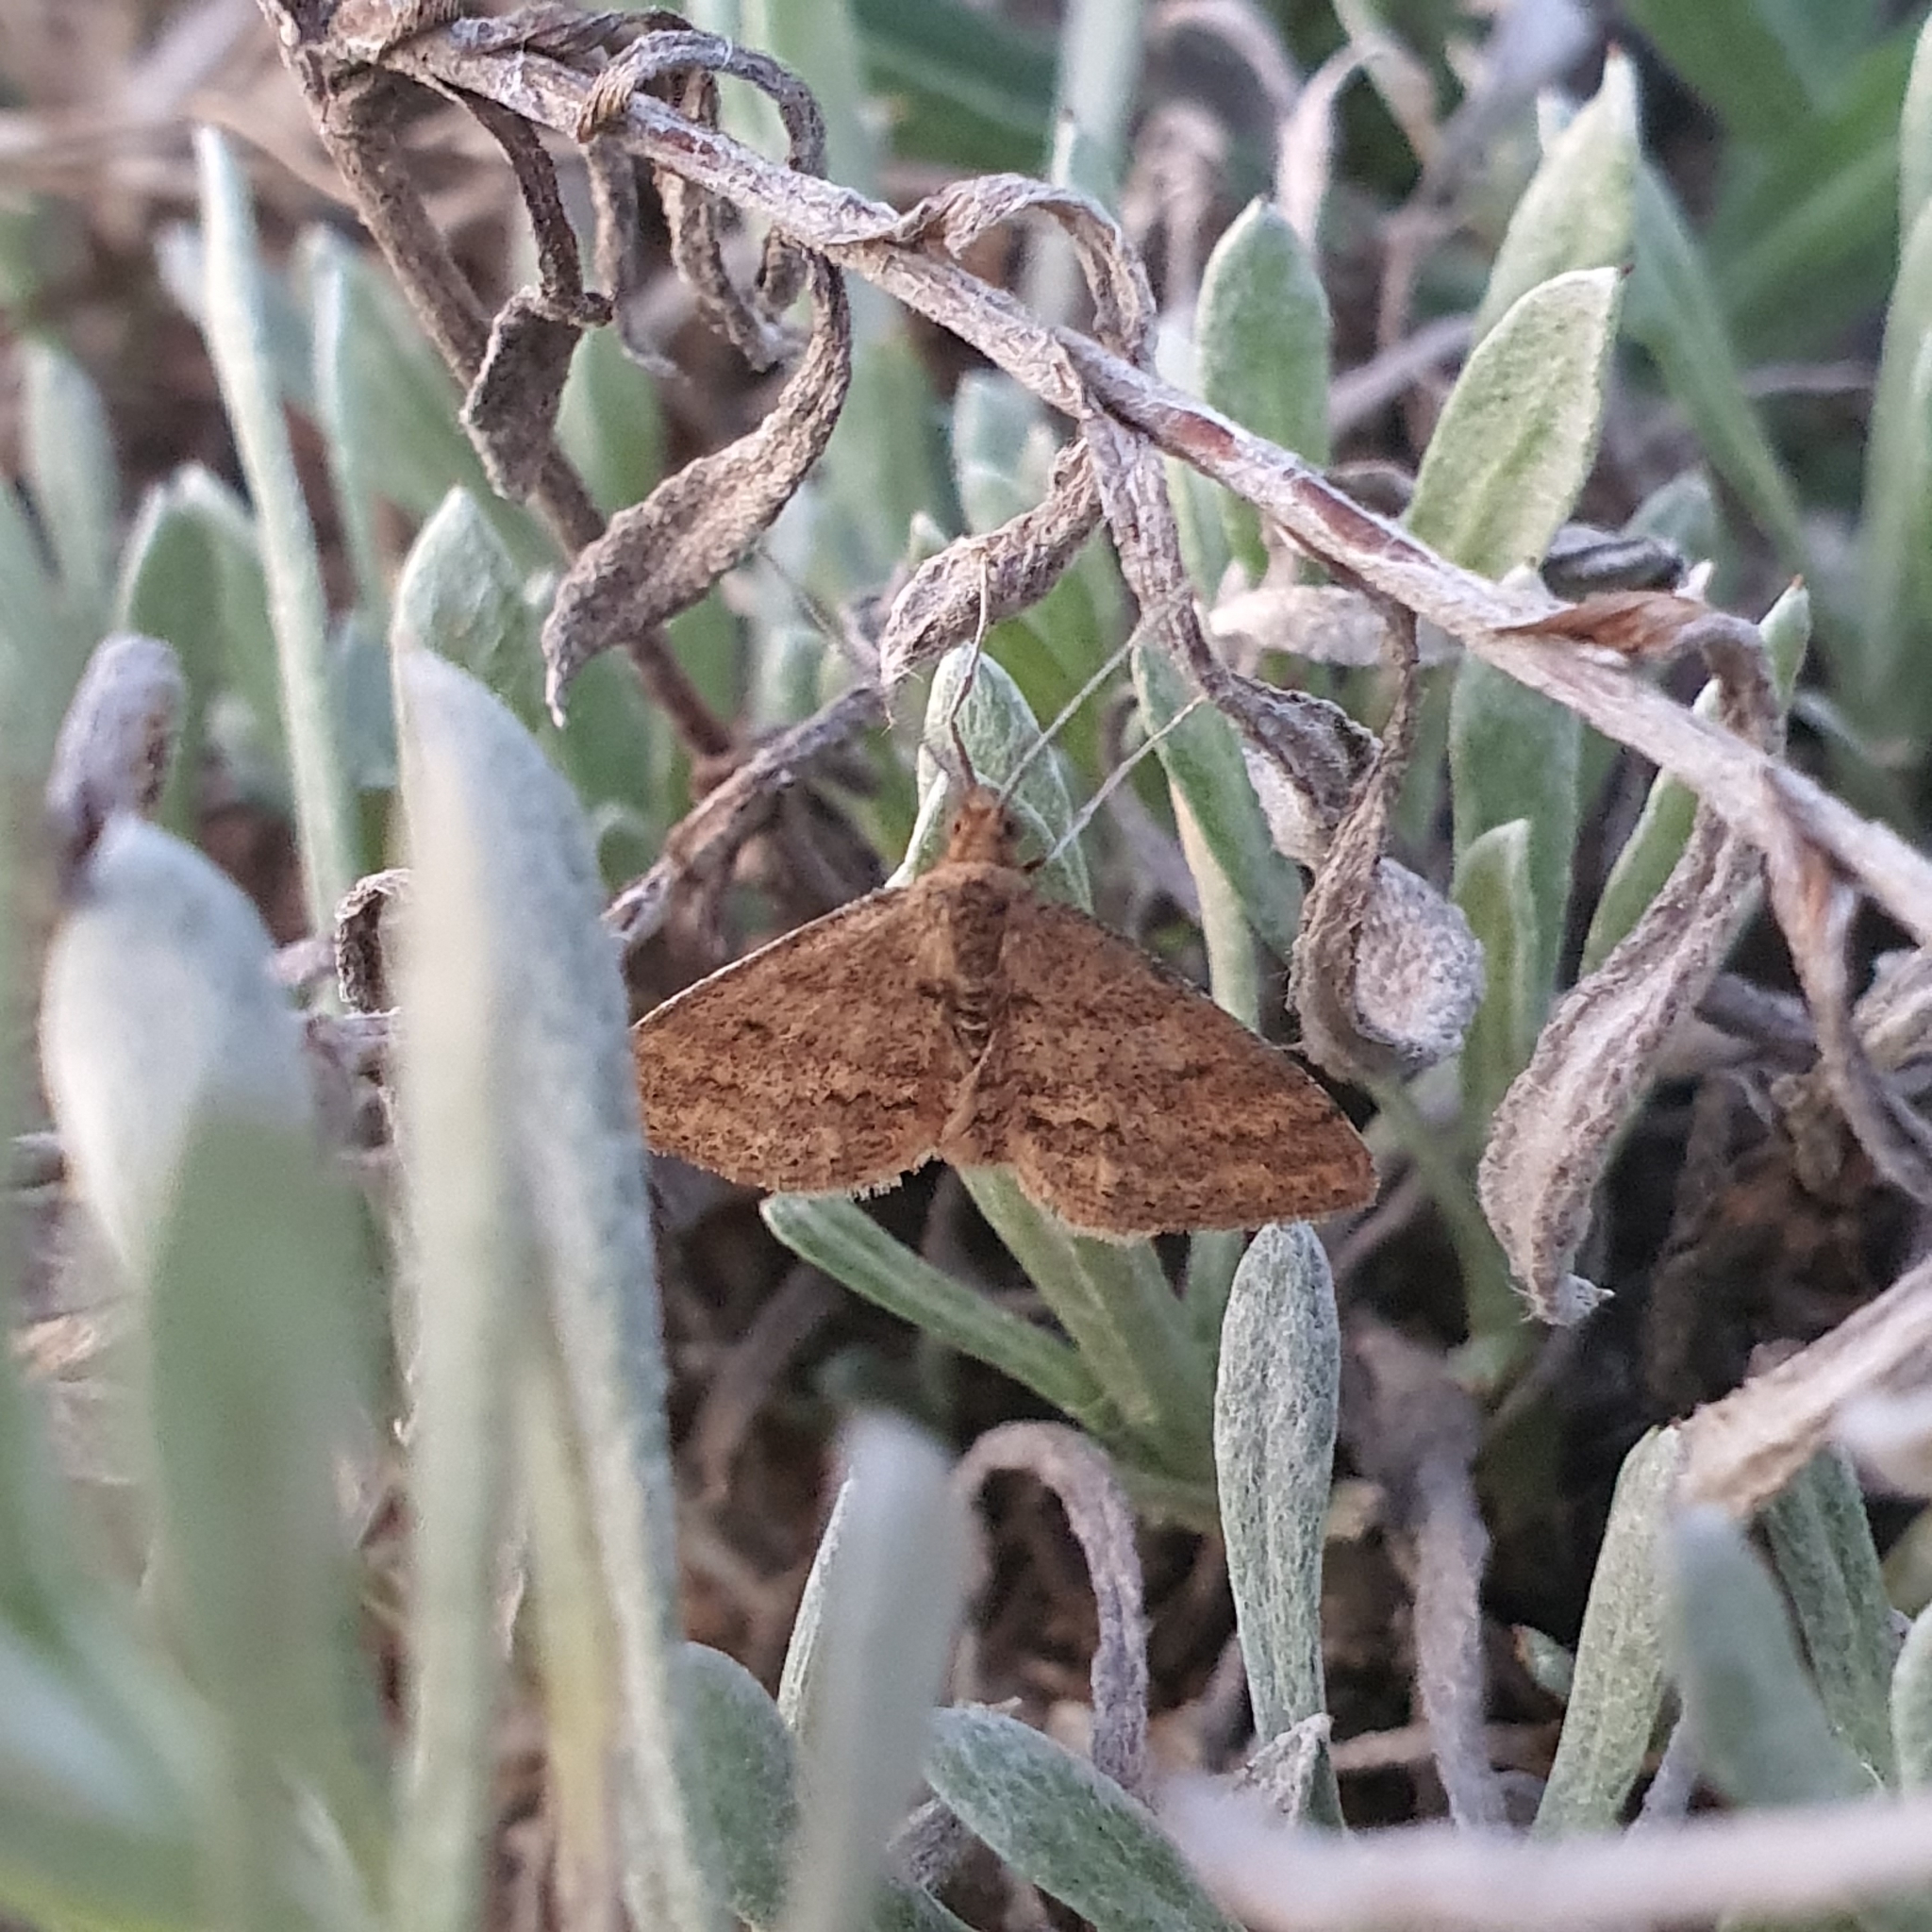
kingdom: Animalia
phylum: Arthropoda
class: Insecta
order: Lepidoptera
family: Geometridae
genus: Scopula
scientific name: Scopula rubraria
